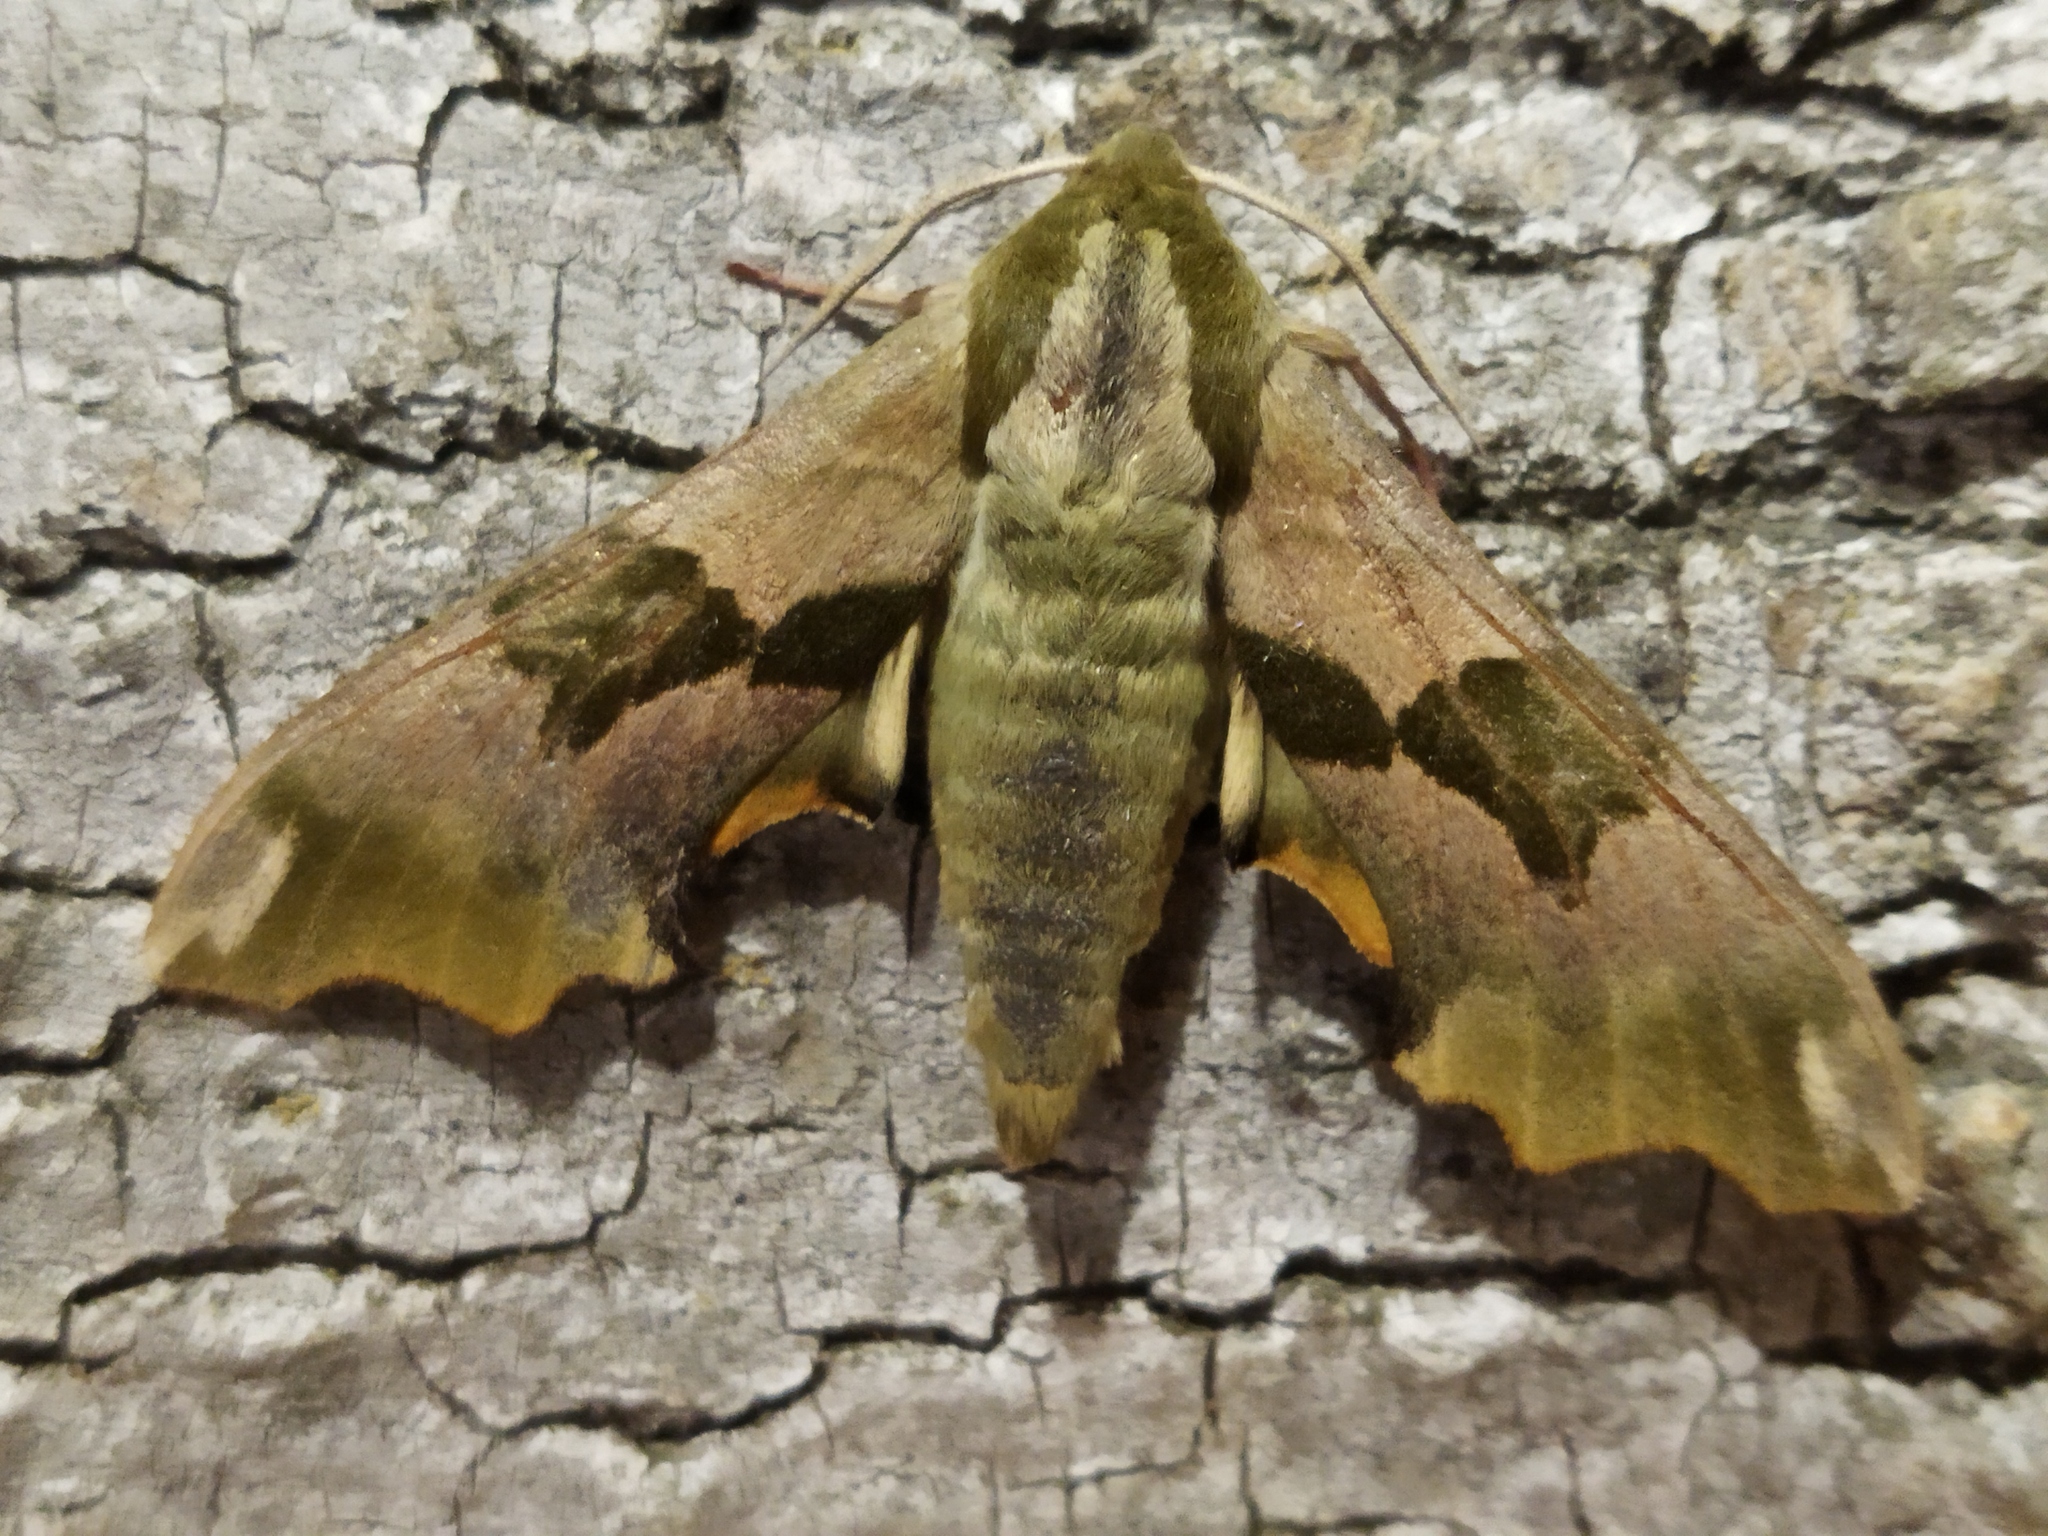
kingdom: Animalia
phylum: Arthropoda
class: Insecta
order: Lepidoptera
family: Sphingidae
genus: Mimas
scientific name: Mimas tiliae
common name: Lime hawk-moth
